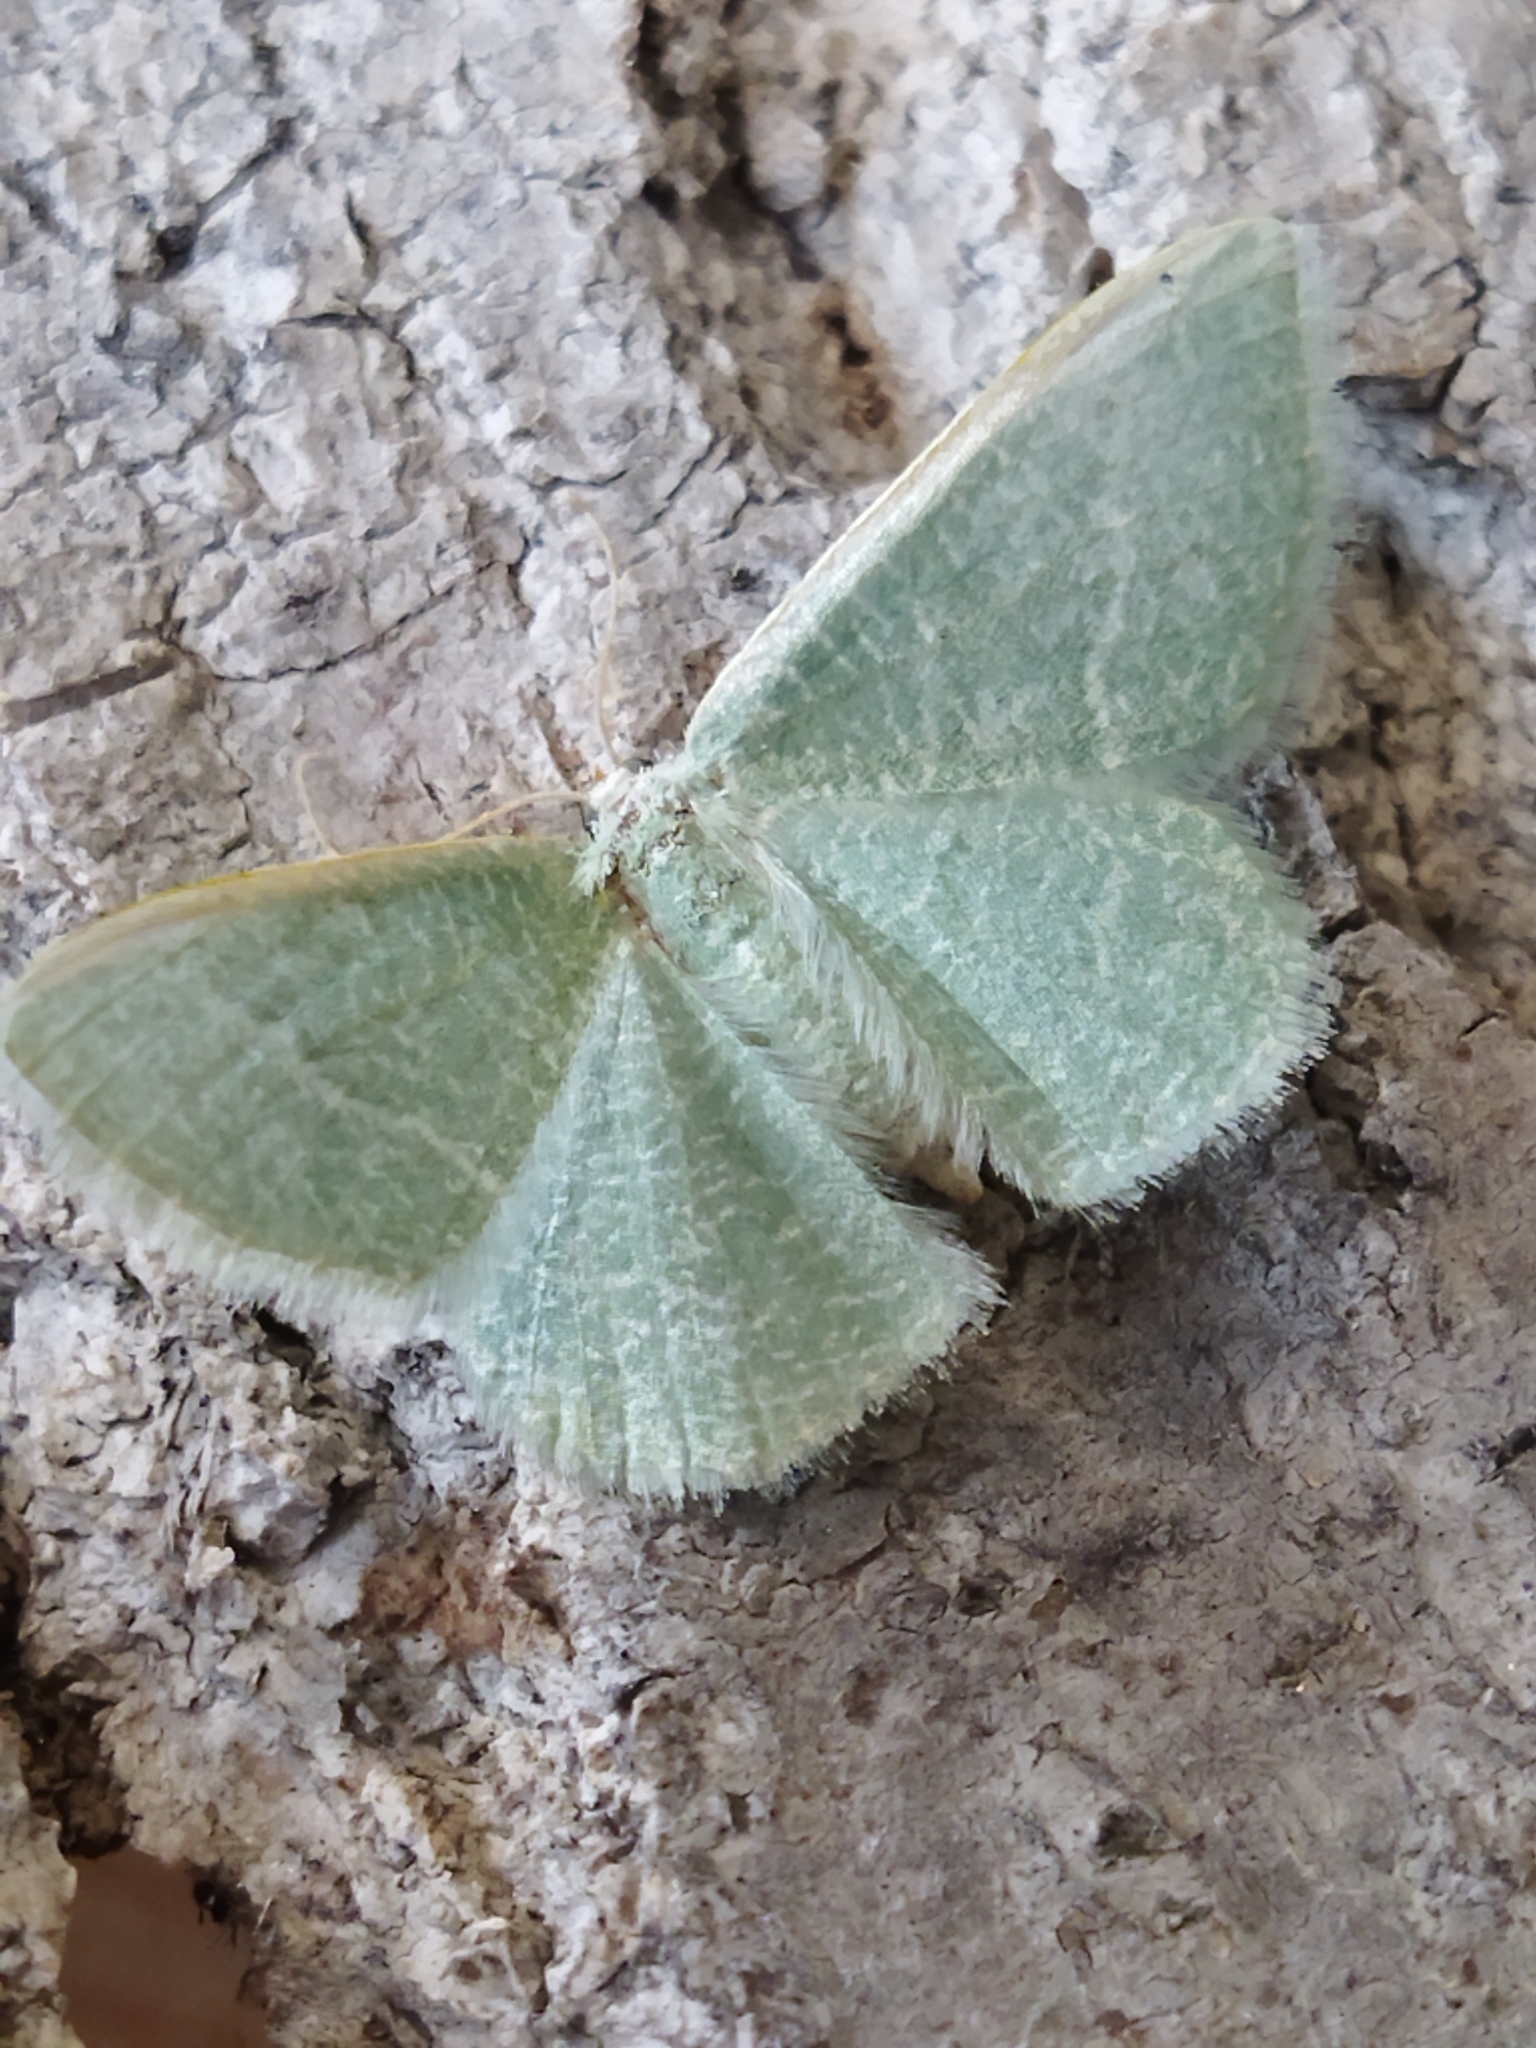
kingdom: Animalia
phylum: Arthropoda
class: Insecta
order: Lepidoptera
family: Geometridae
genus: Chlorissa
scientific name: Chlorissa etruscaria
